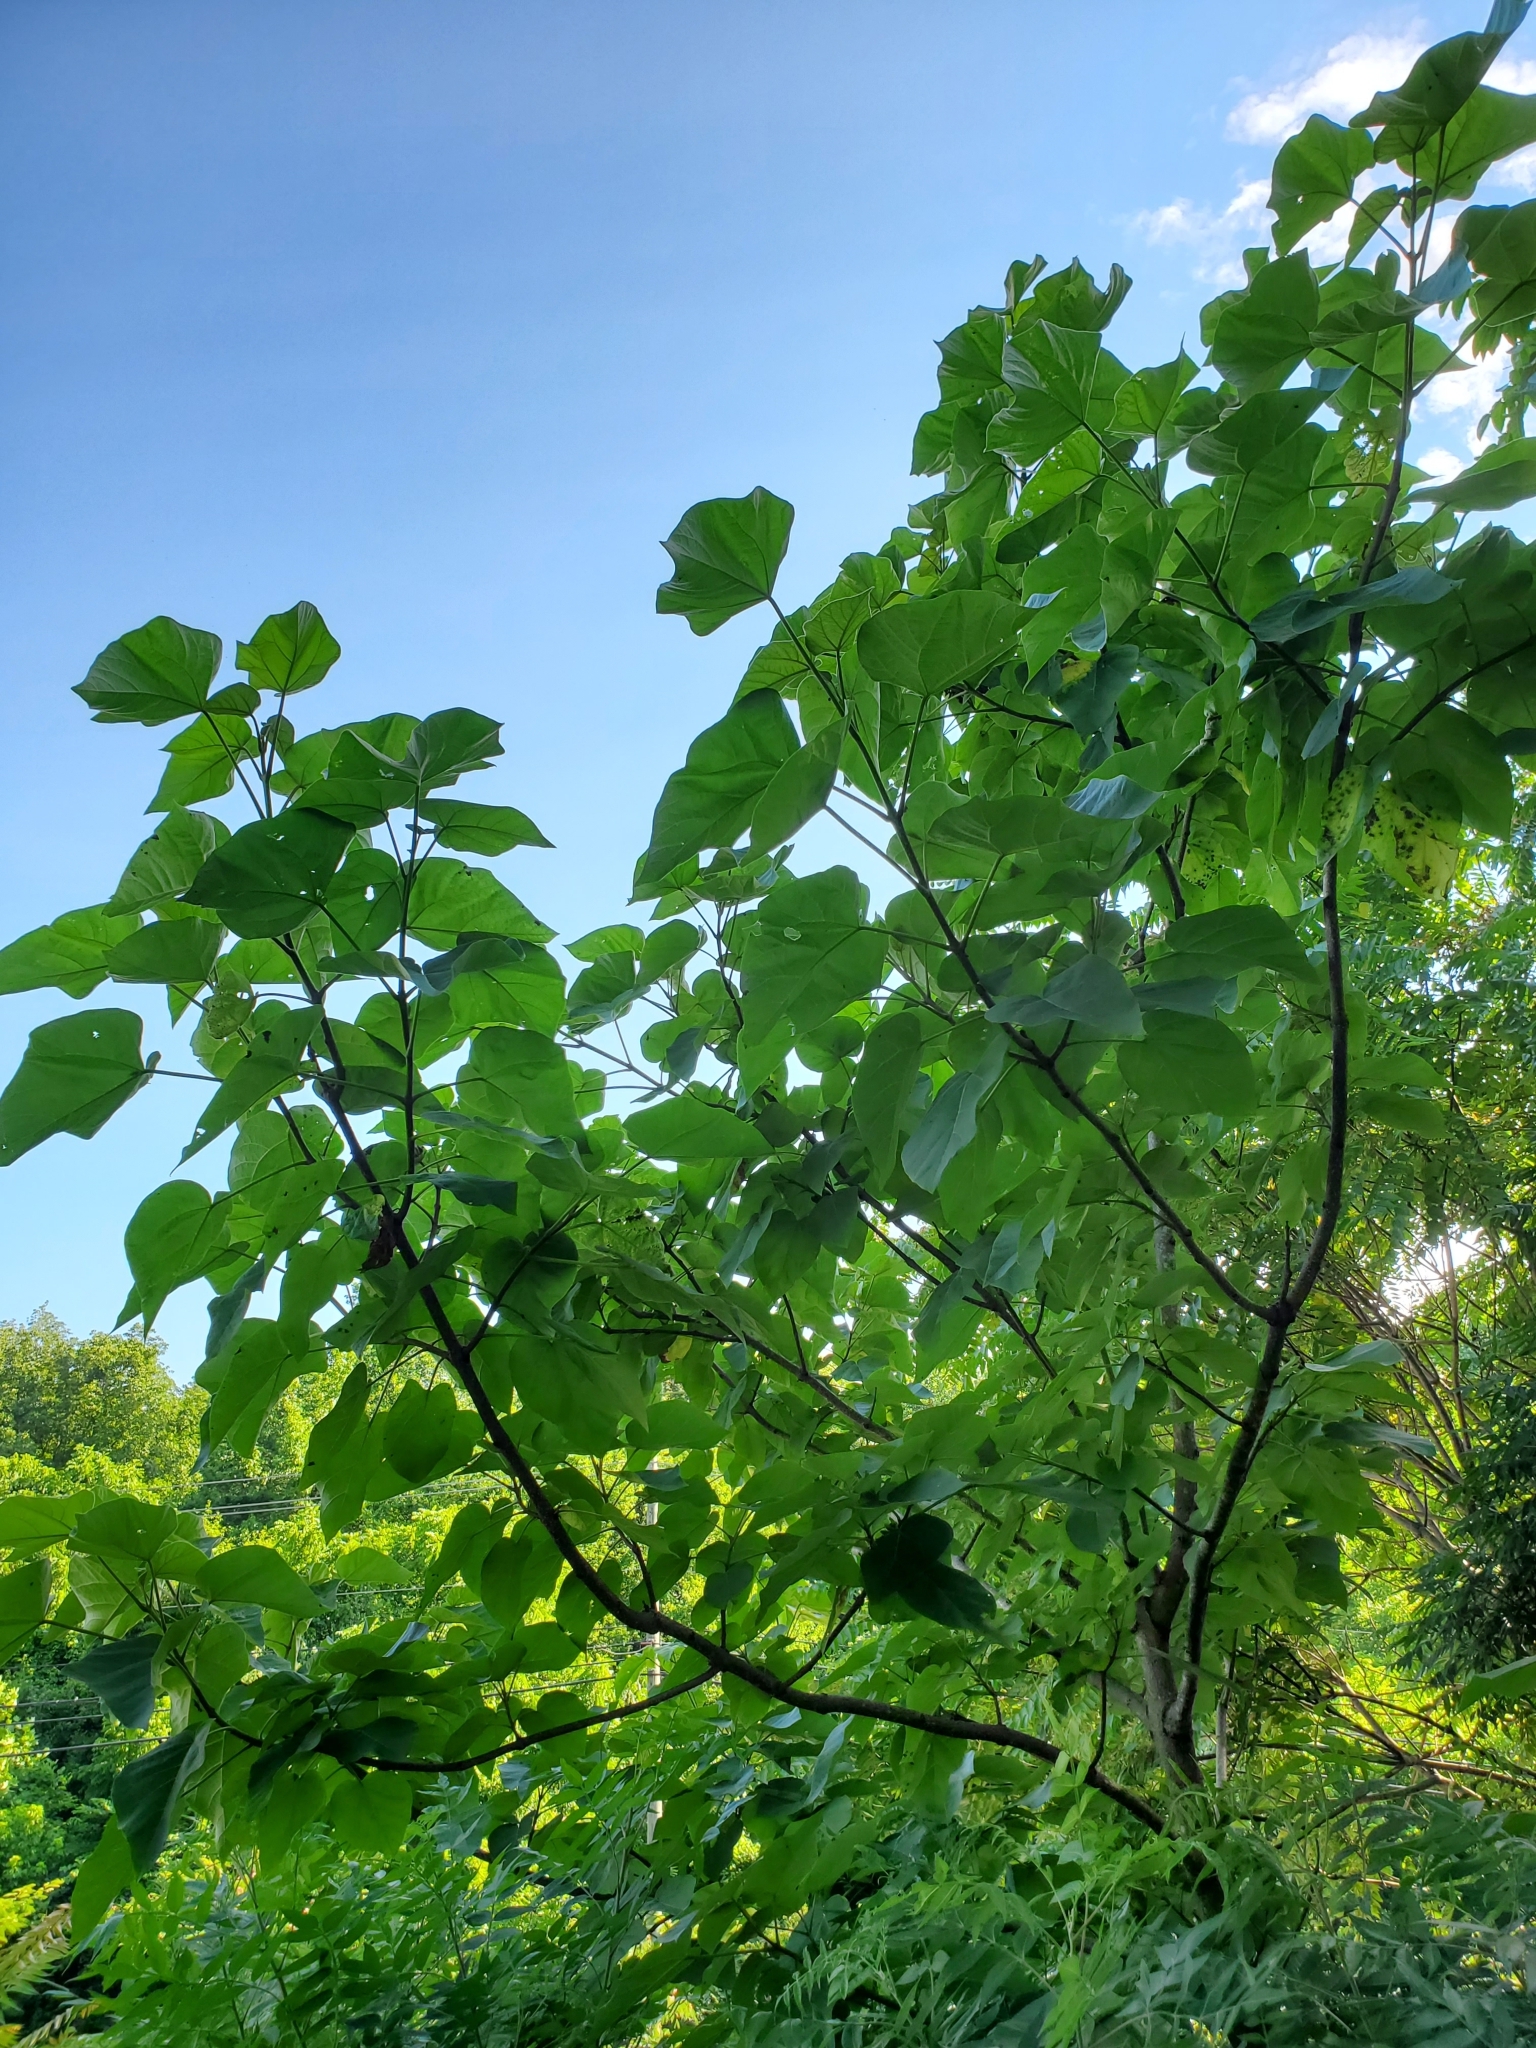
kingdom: Plantae
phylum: Tracheophyta
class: Magnoliopsida
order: Lamiales
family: Paulowniaceae
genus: Paulownia
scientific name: Paulownia tomentosa
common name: Foxglove-tree
